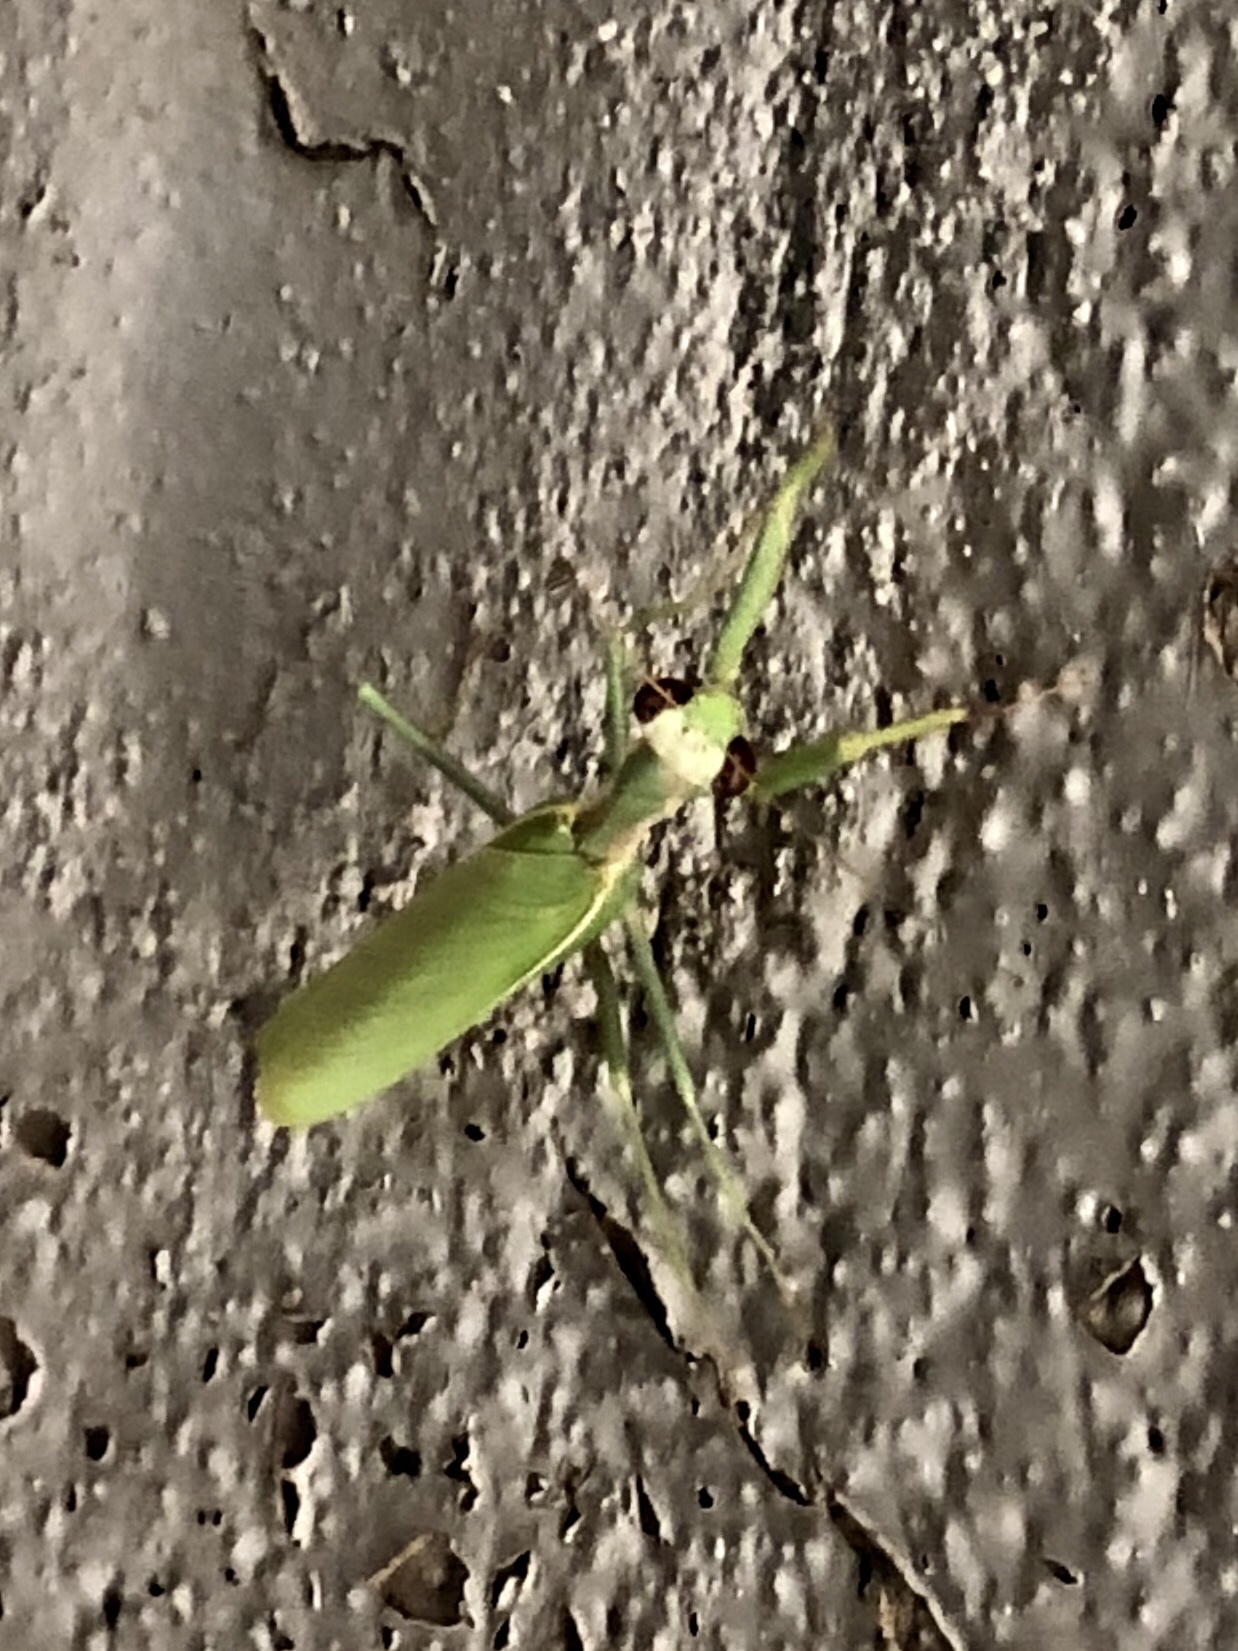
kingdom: Animalia
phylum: Arthropoda
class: Insecta
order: Mantodea
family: Eremiaphilidae
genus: Iris
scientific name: Iris oratoria
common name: Mediterranean mantis
